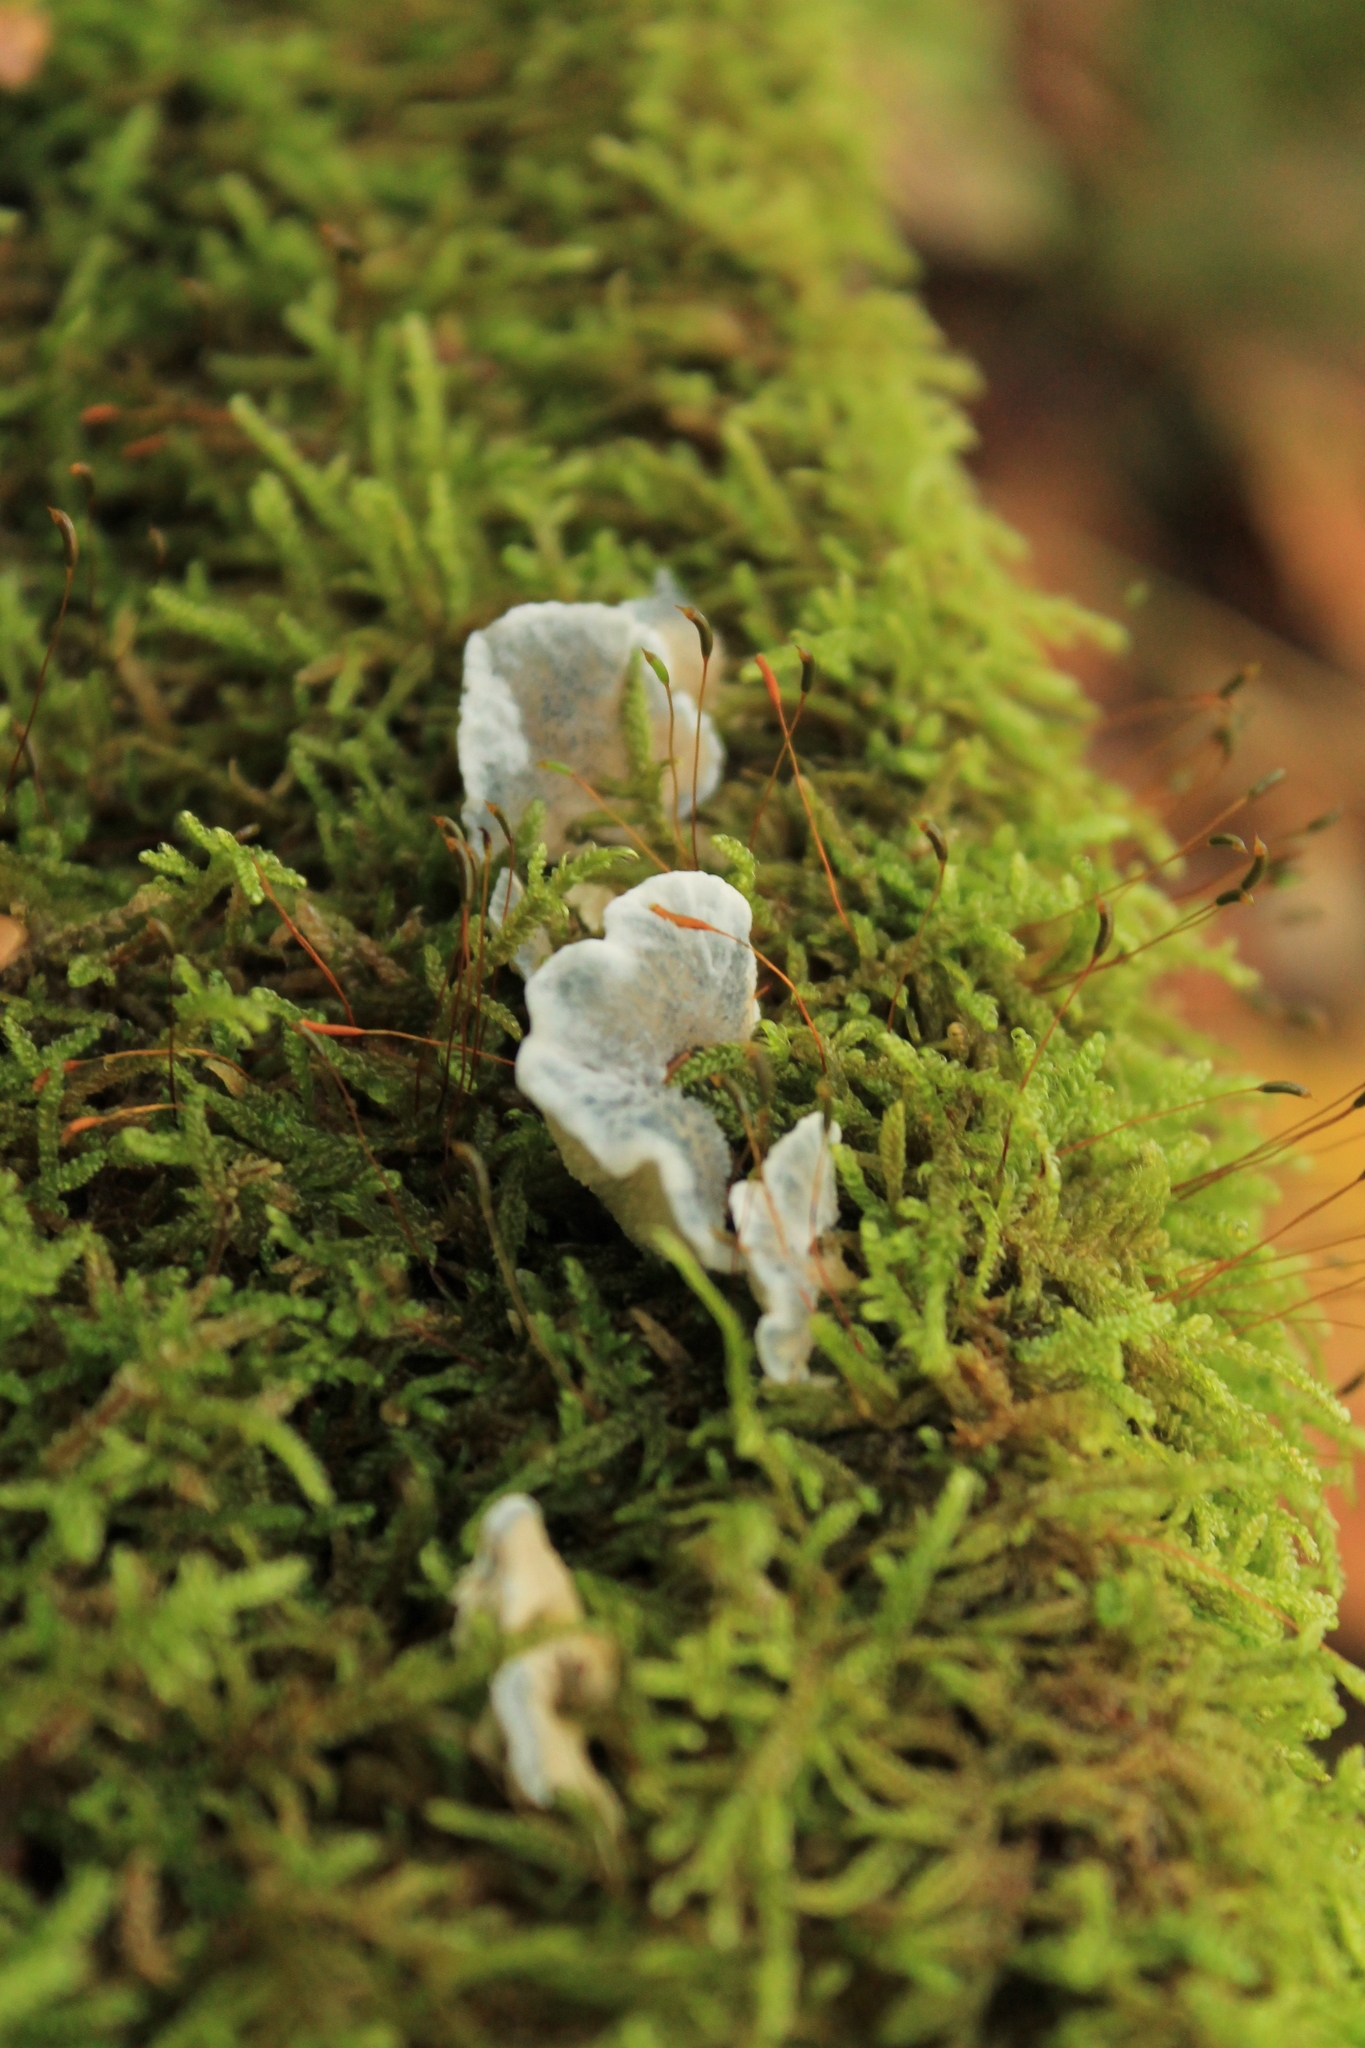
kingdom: Fungi
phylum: Basidiomycota
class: Agaricomycetes
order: Polyporales
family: Polyporaceae
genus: Cyanosporus
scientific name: Cyanosporus caesius
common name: Blue cheese polypore
